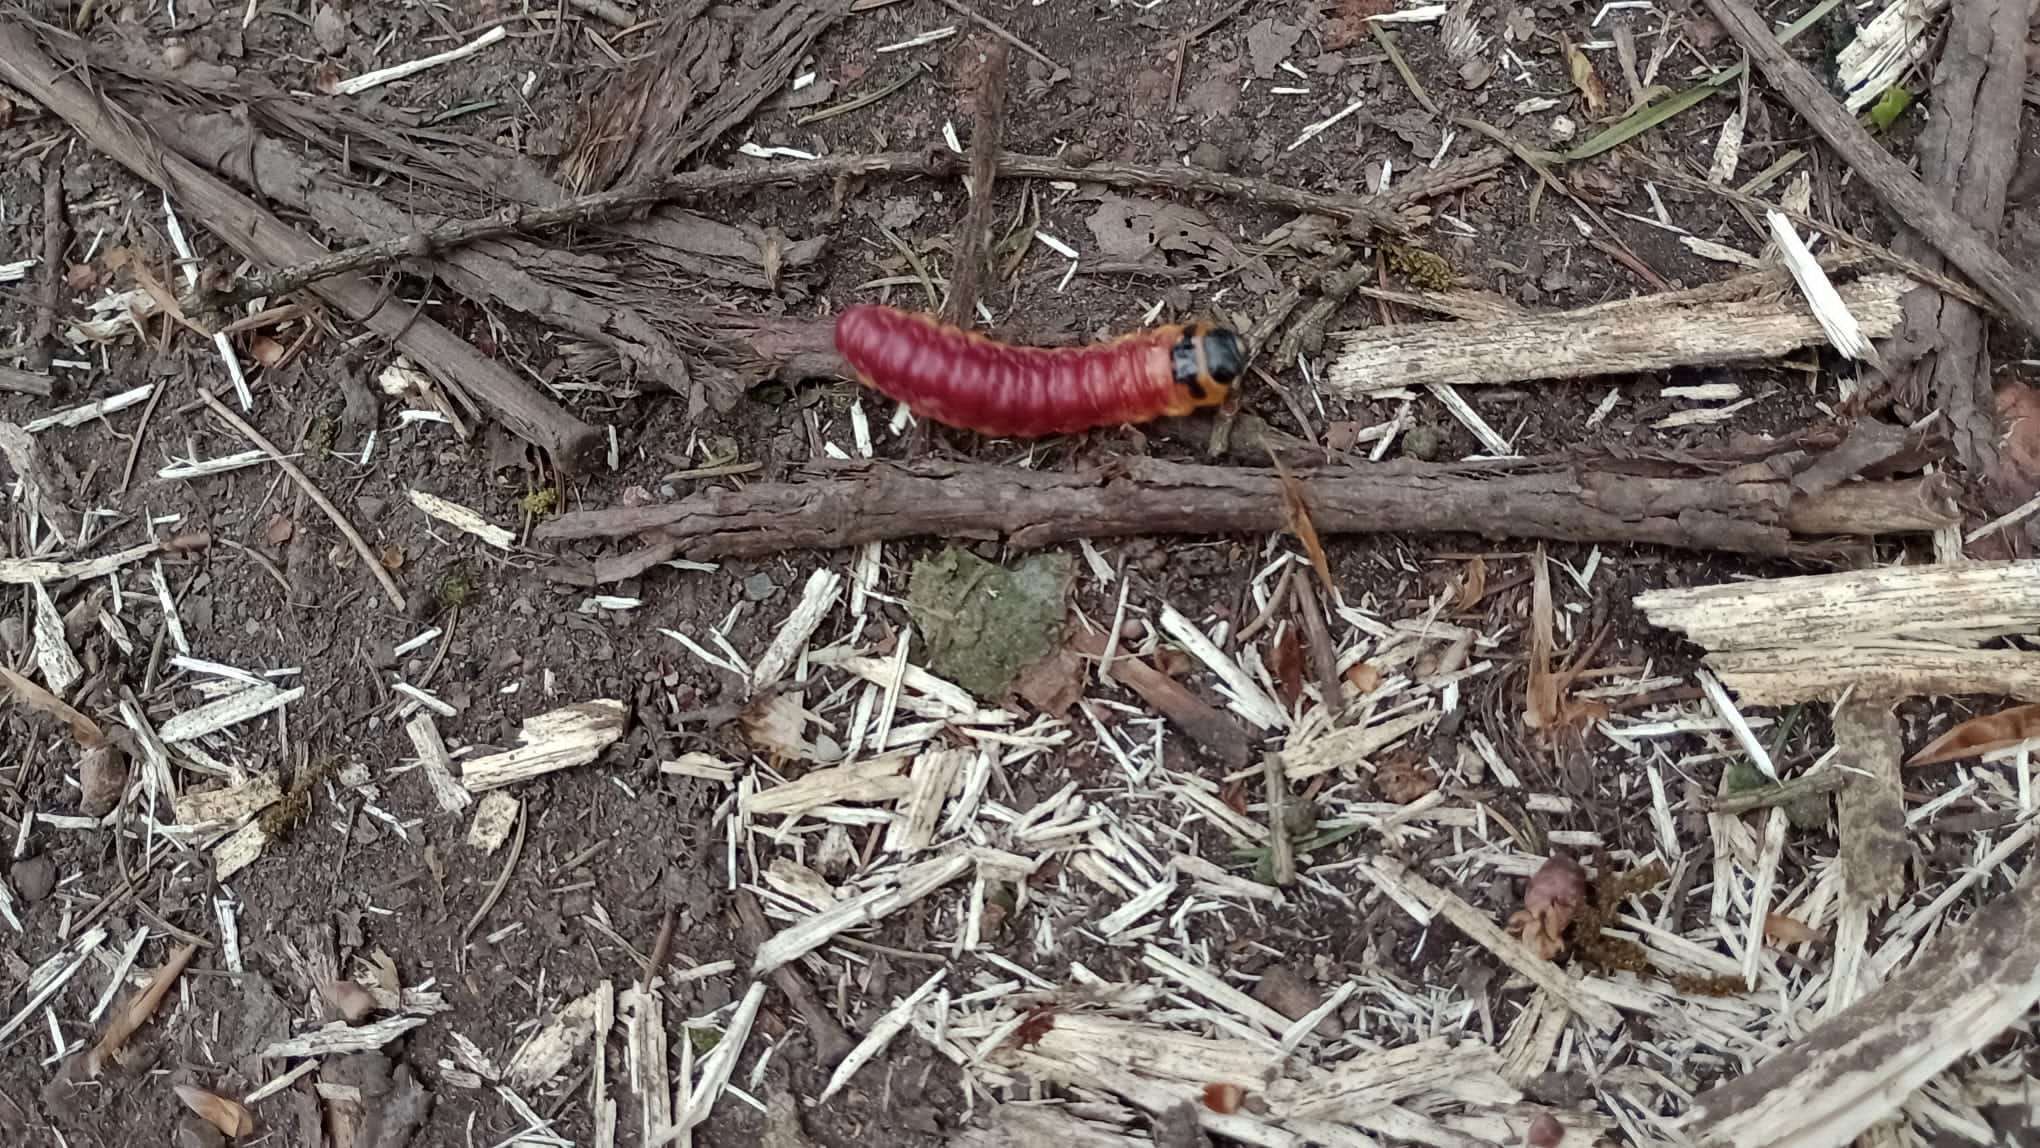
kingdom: Animalia
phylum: Arthropoda
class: Insecta
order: Lepidoptera
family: Cossidae
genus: Cossus
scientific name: Cossus cossus
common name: Goat moth
